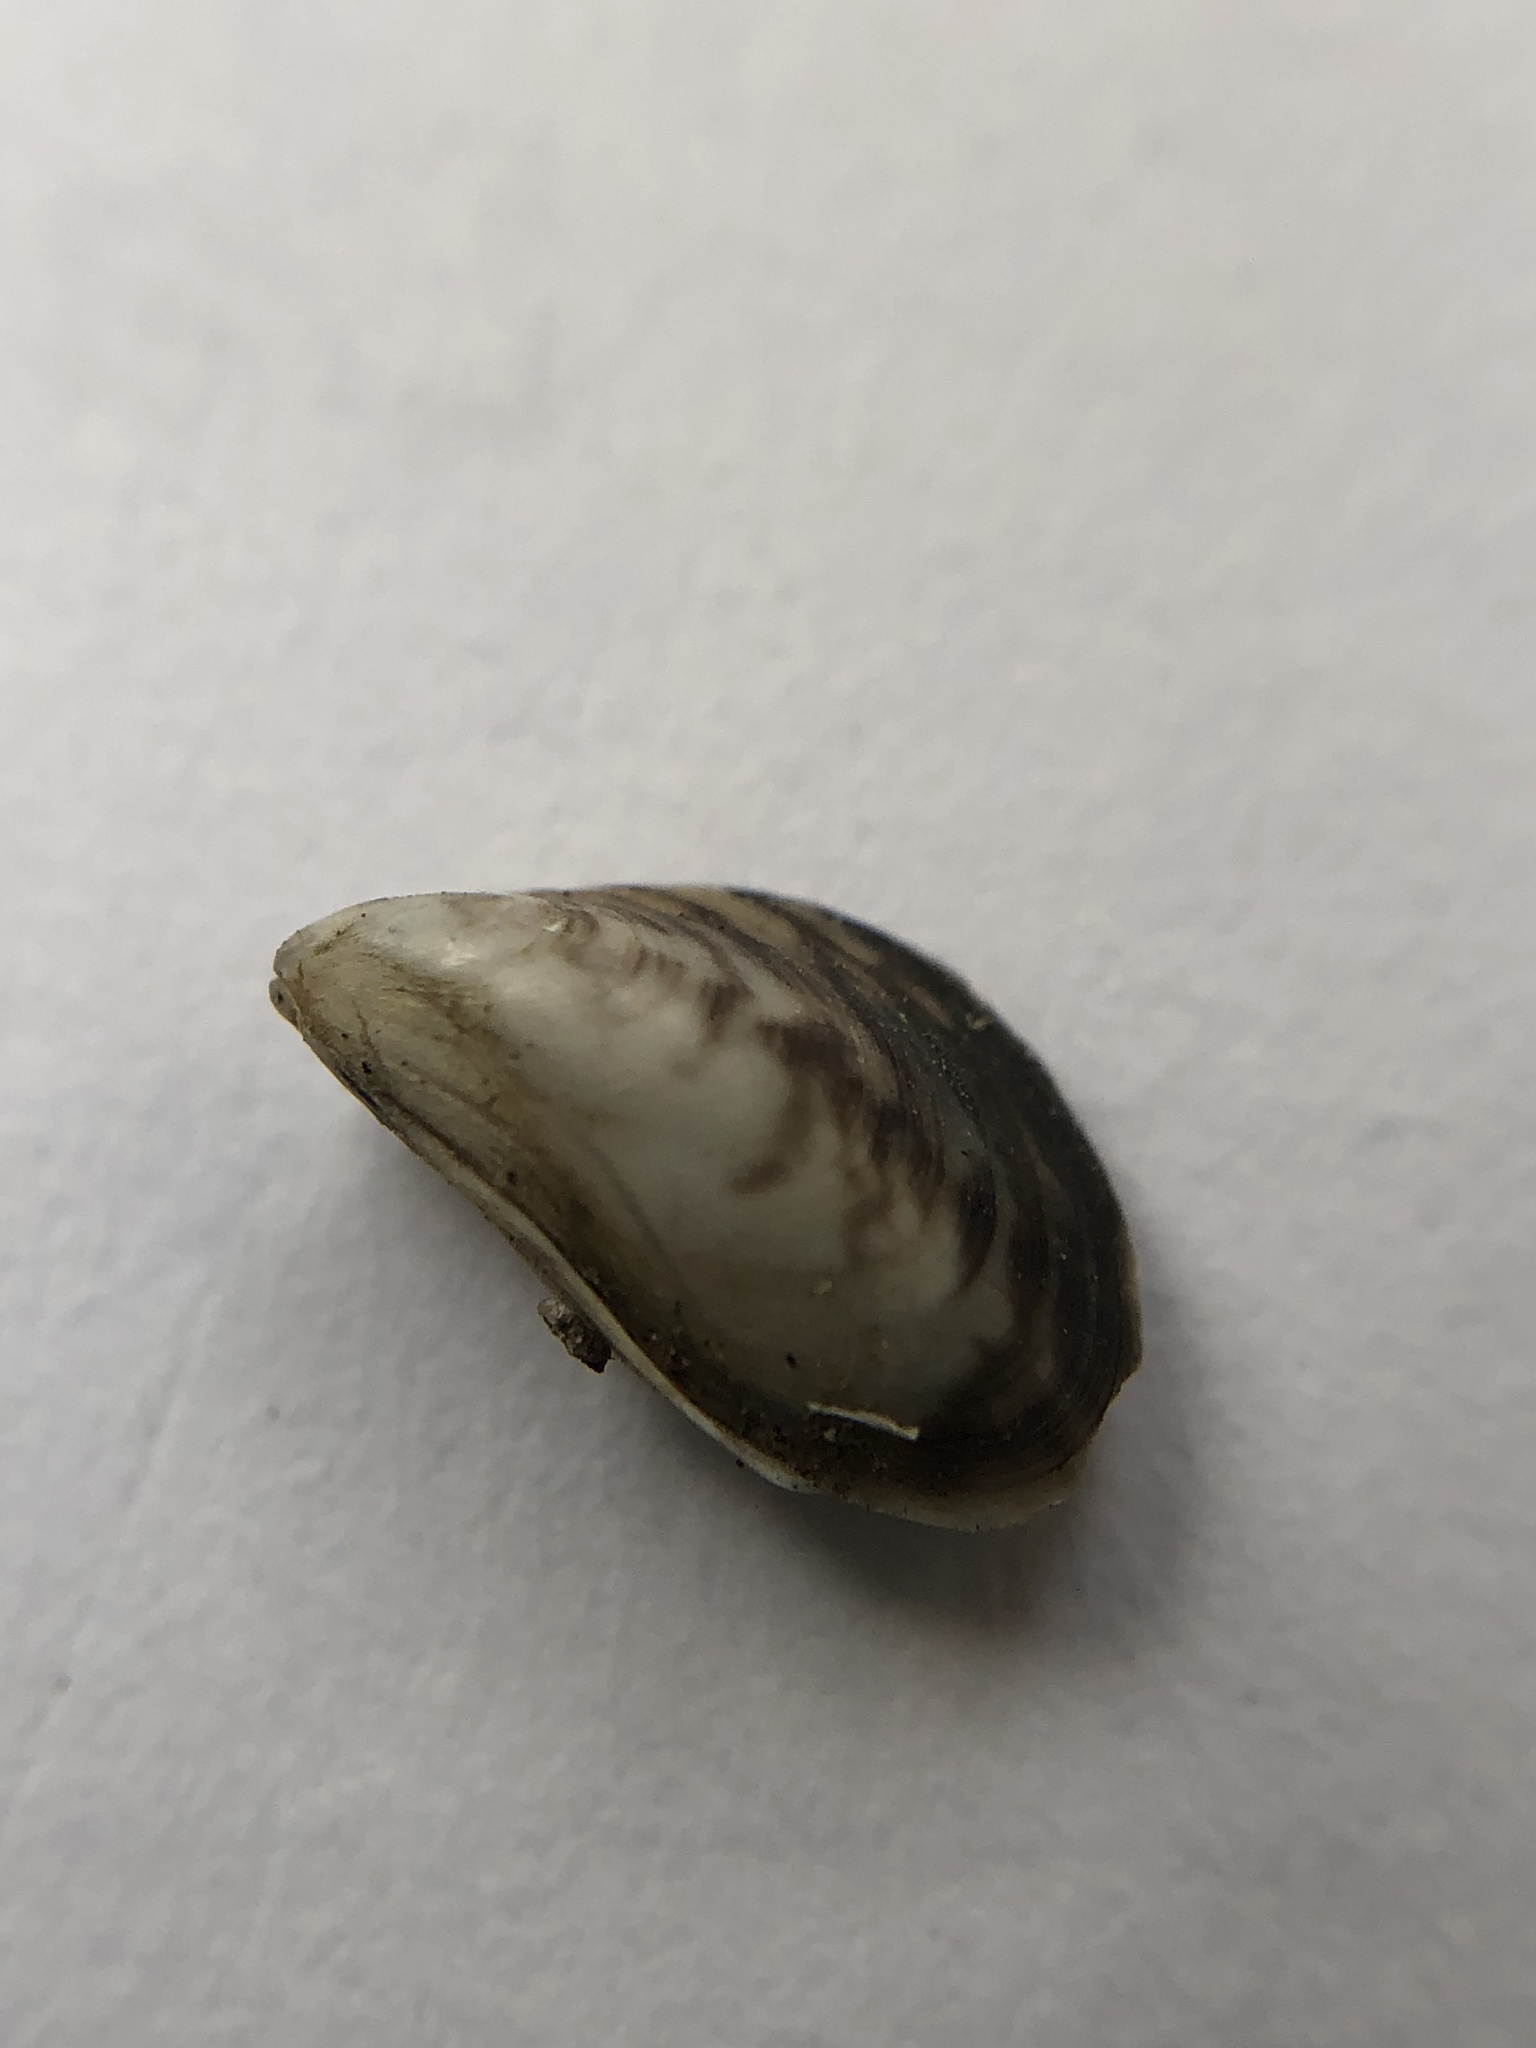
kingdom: Animalia
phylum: Mollusca
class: Bivalvia
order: Myida
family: Dreissenidae
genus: Dreissena
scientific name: Dreissena bugensis
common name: Quagga mussel
